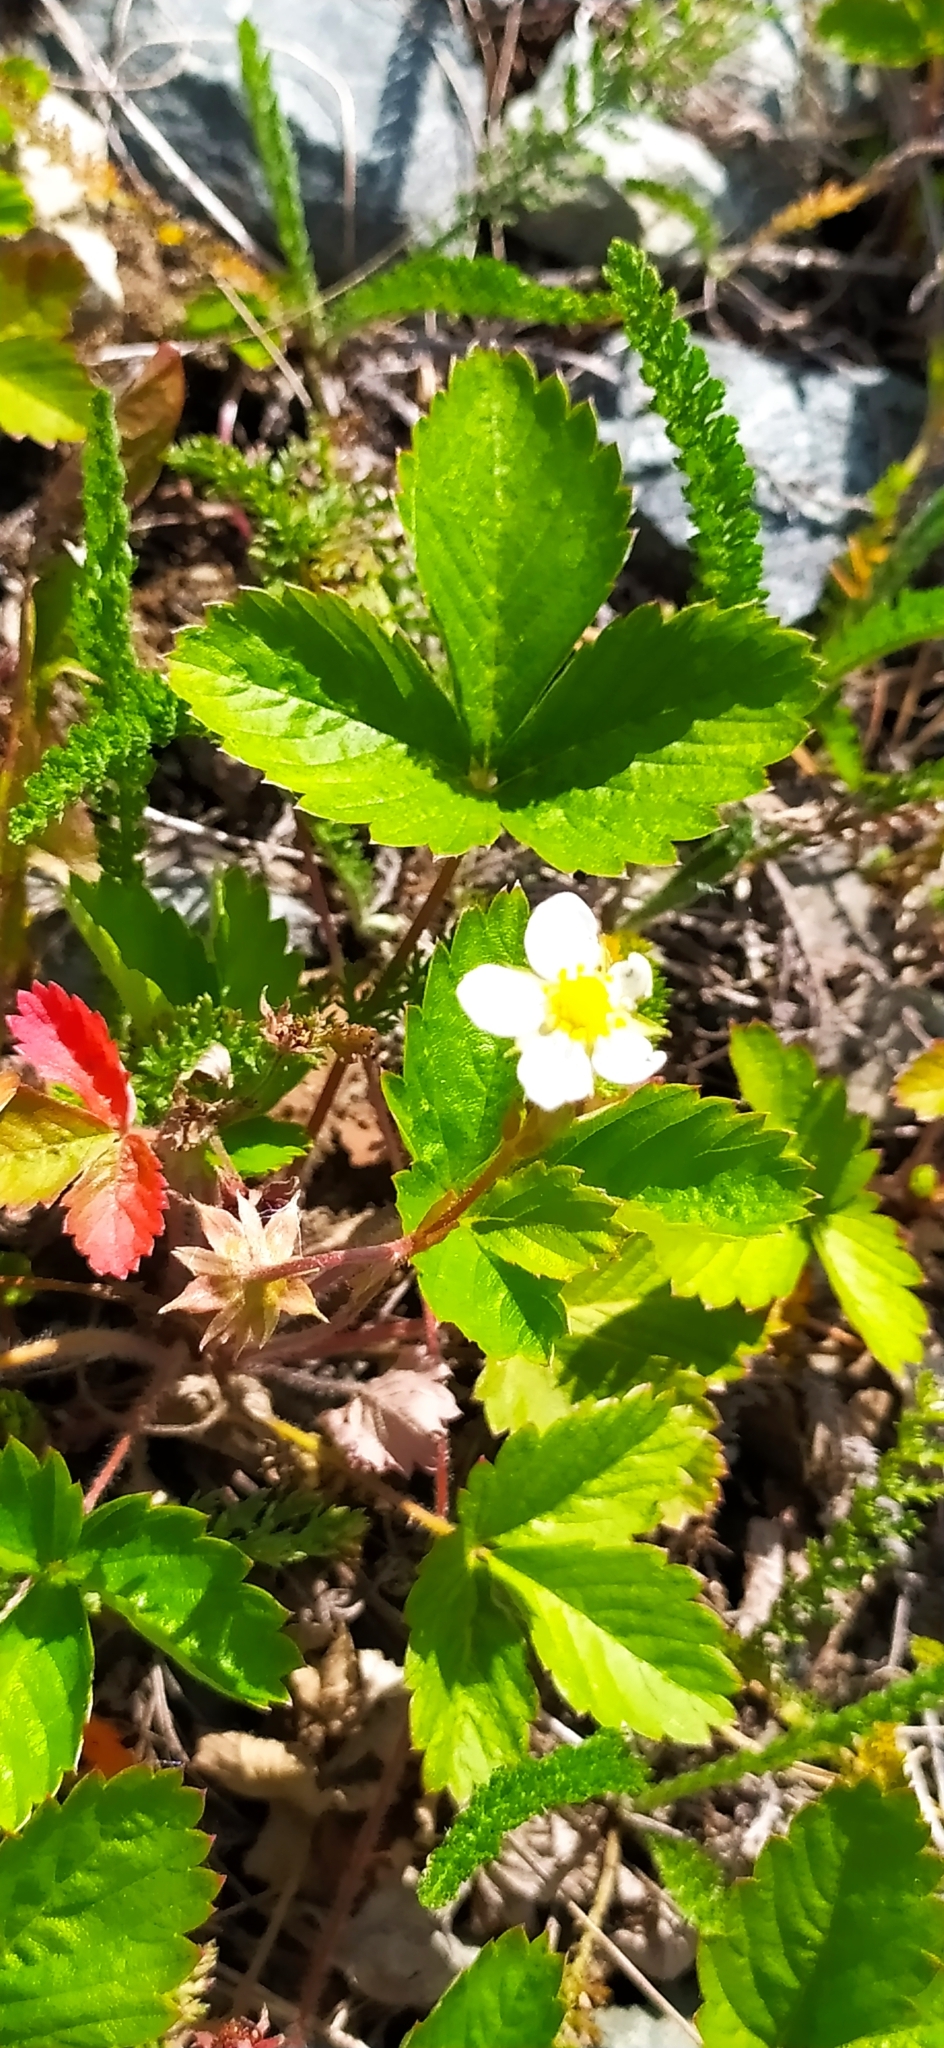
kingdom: Plantae
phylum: Tracheophyta
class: Magnoliopsida
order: Rosales
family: Rosaceae
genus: Fragaria
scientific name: Fragaria vesca
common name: Wild strawberry
